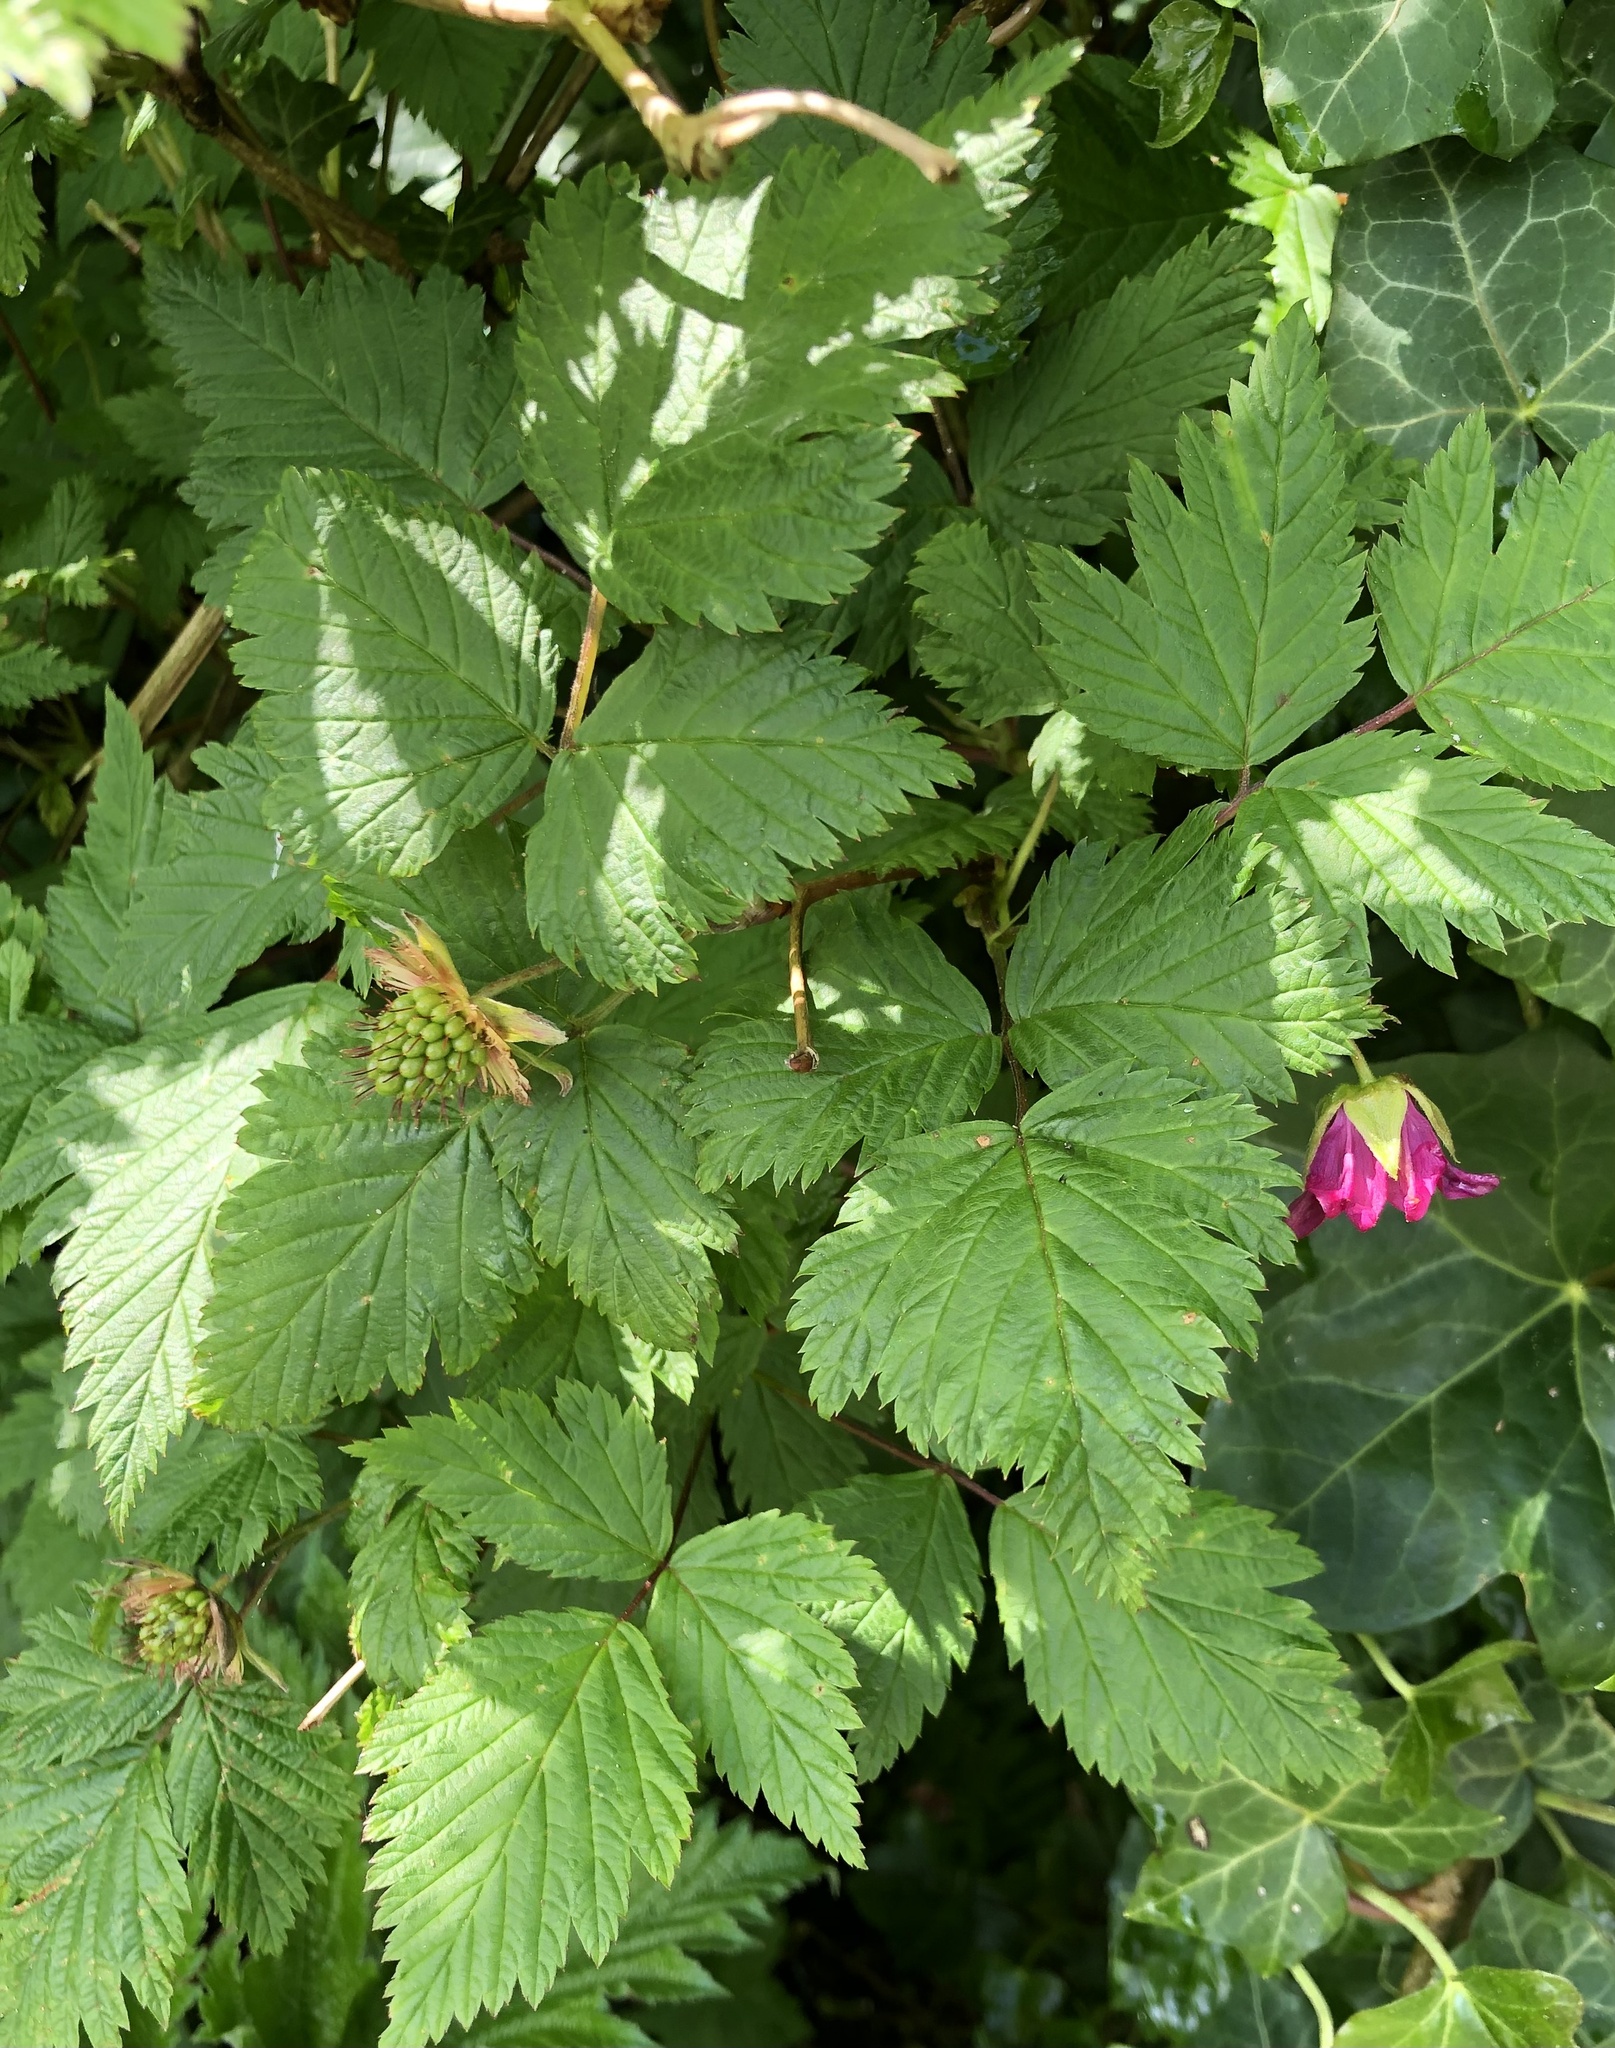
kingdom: Plantae
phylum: Tracheophyta
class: Magnoliopsida
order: Rosales
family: Rosaceae
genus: Rubus
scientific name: Rubus spectabilis
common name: Salmonberry
